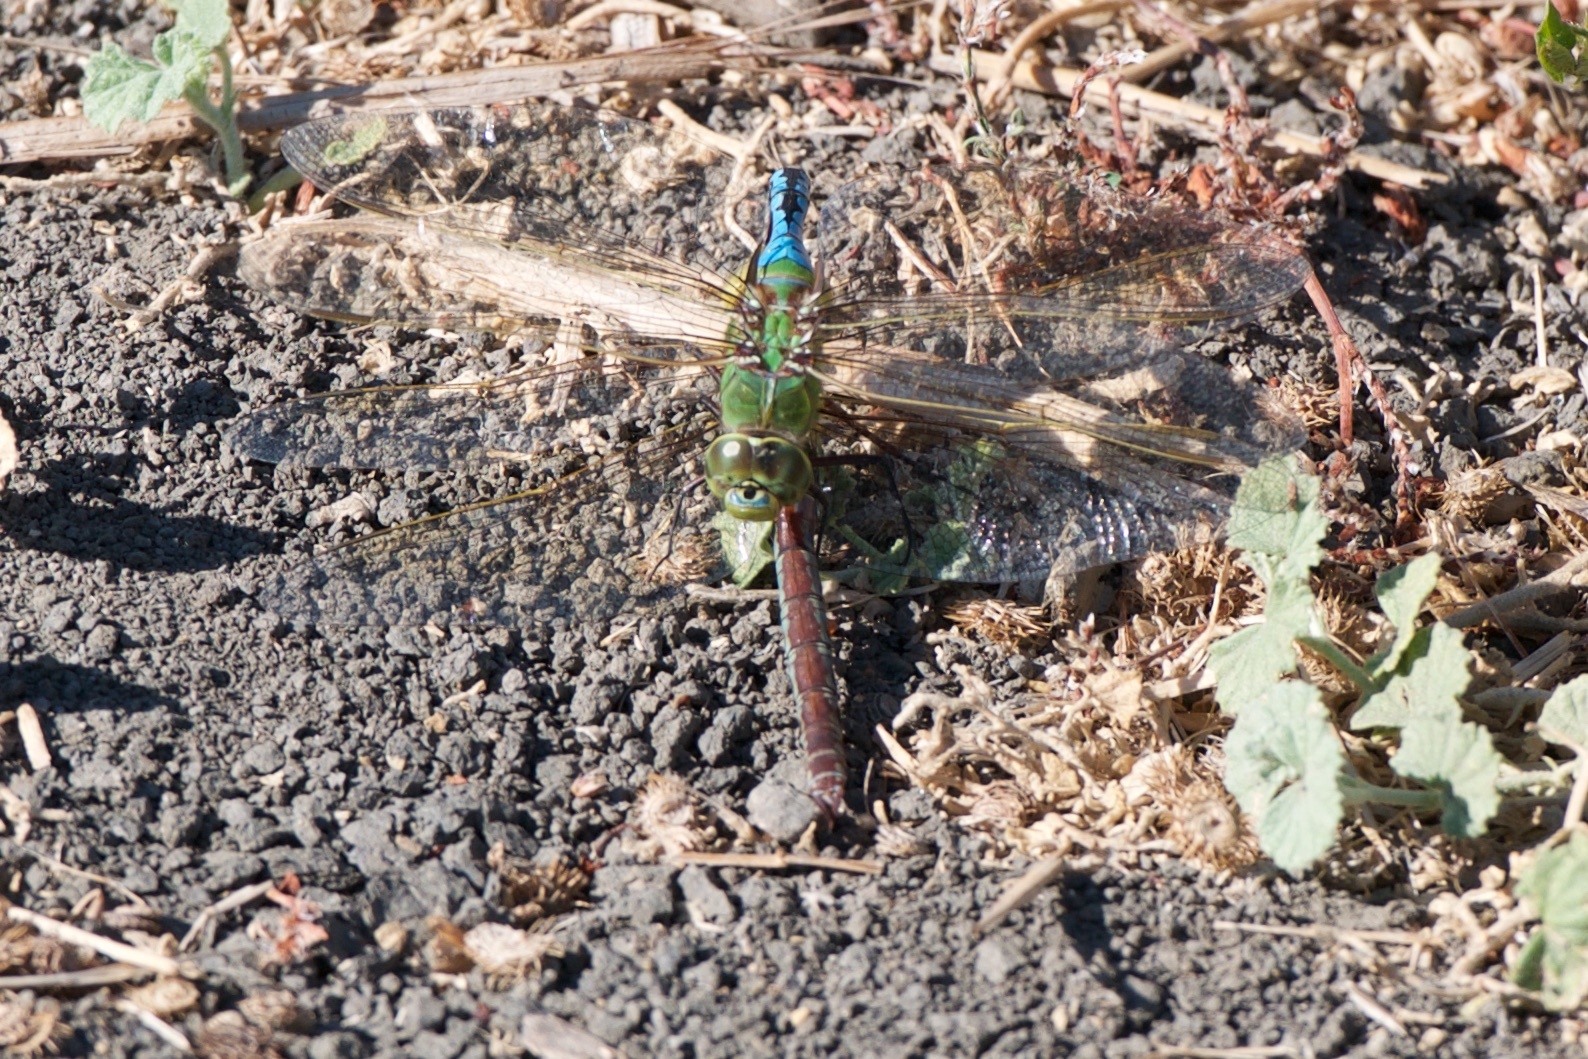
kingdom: Animalia
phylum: Arthropoda
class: Insecta
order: Odonata
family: Aeshnidae
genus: Anax
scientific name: Anax junius
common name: Common green darner
